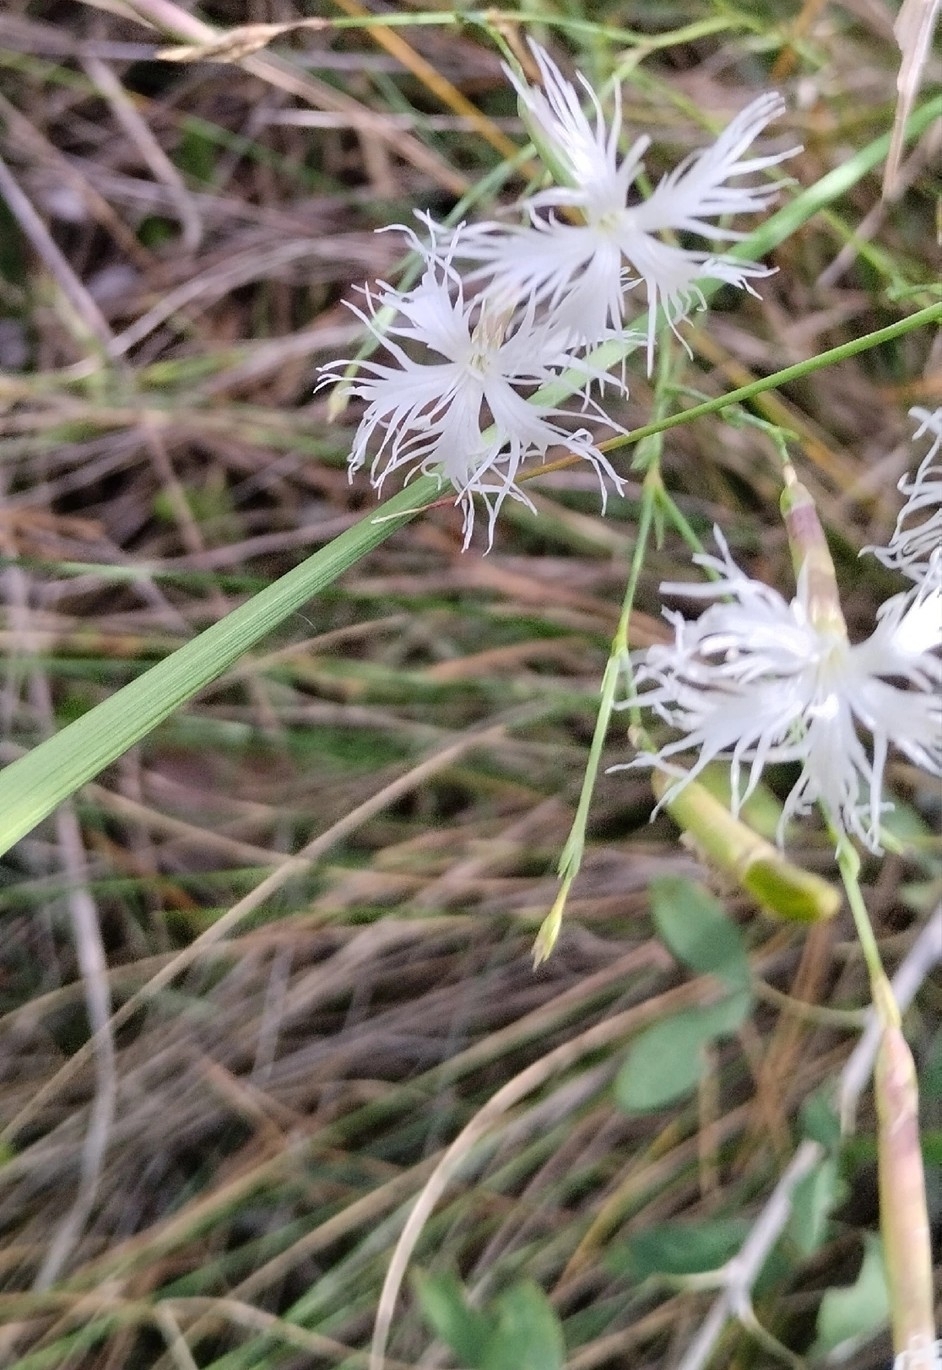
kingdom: Plantae
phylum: Tracheophyta
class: Magnoliopsida
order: Caryophyllales
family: Caryophyllaceae
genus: Dianthus
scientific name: Dianthus arenarius
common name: Stone pink
